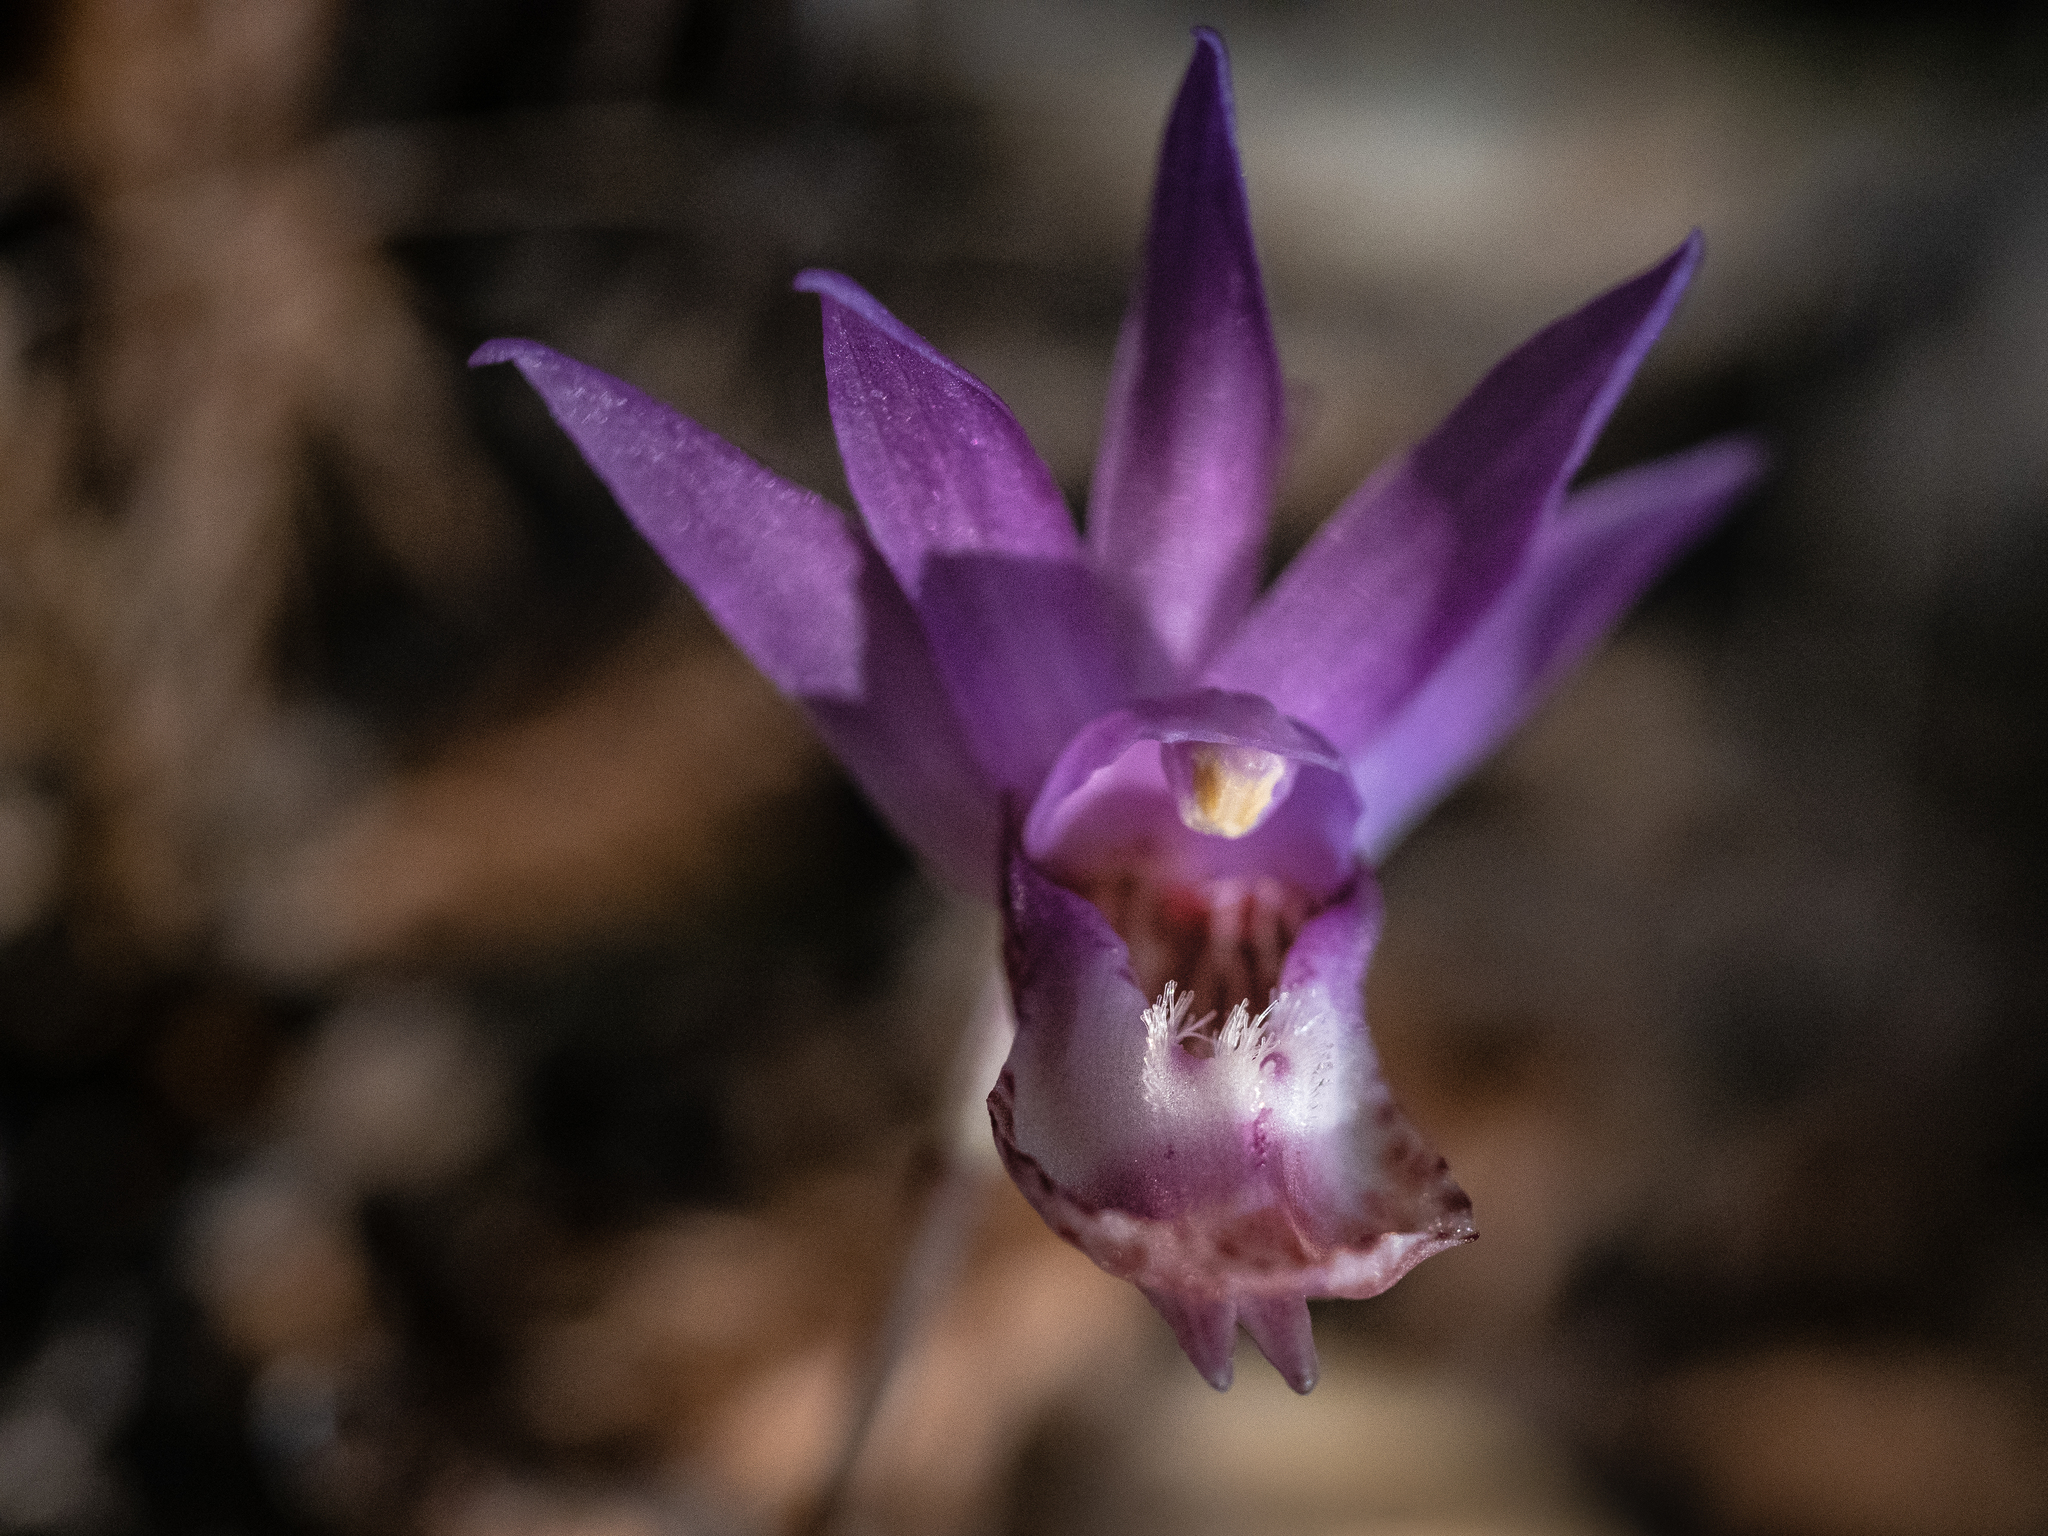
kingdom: Plantae
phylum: Tracheophyta
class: Liliopsida
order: Asparagales
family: Orchidaceae
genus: Calypso
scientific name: Calypso bulbosa
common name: Calypso
